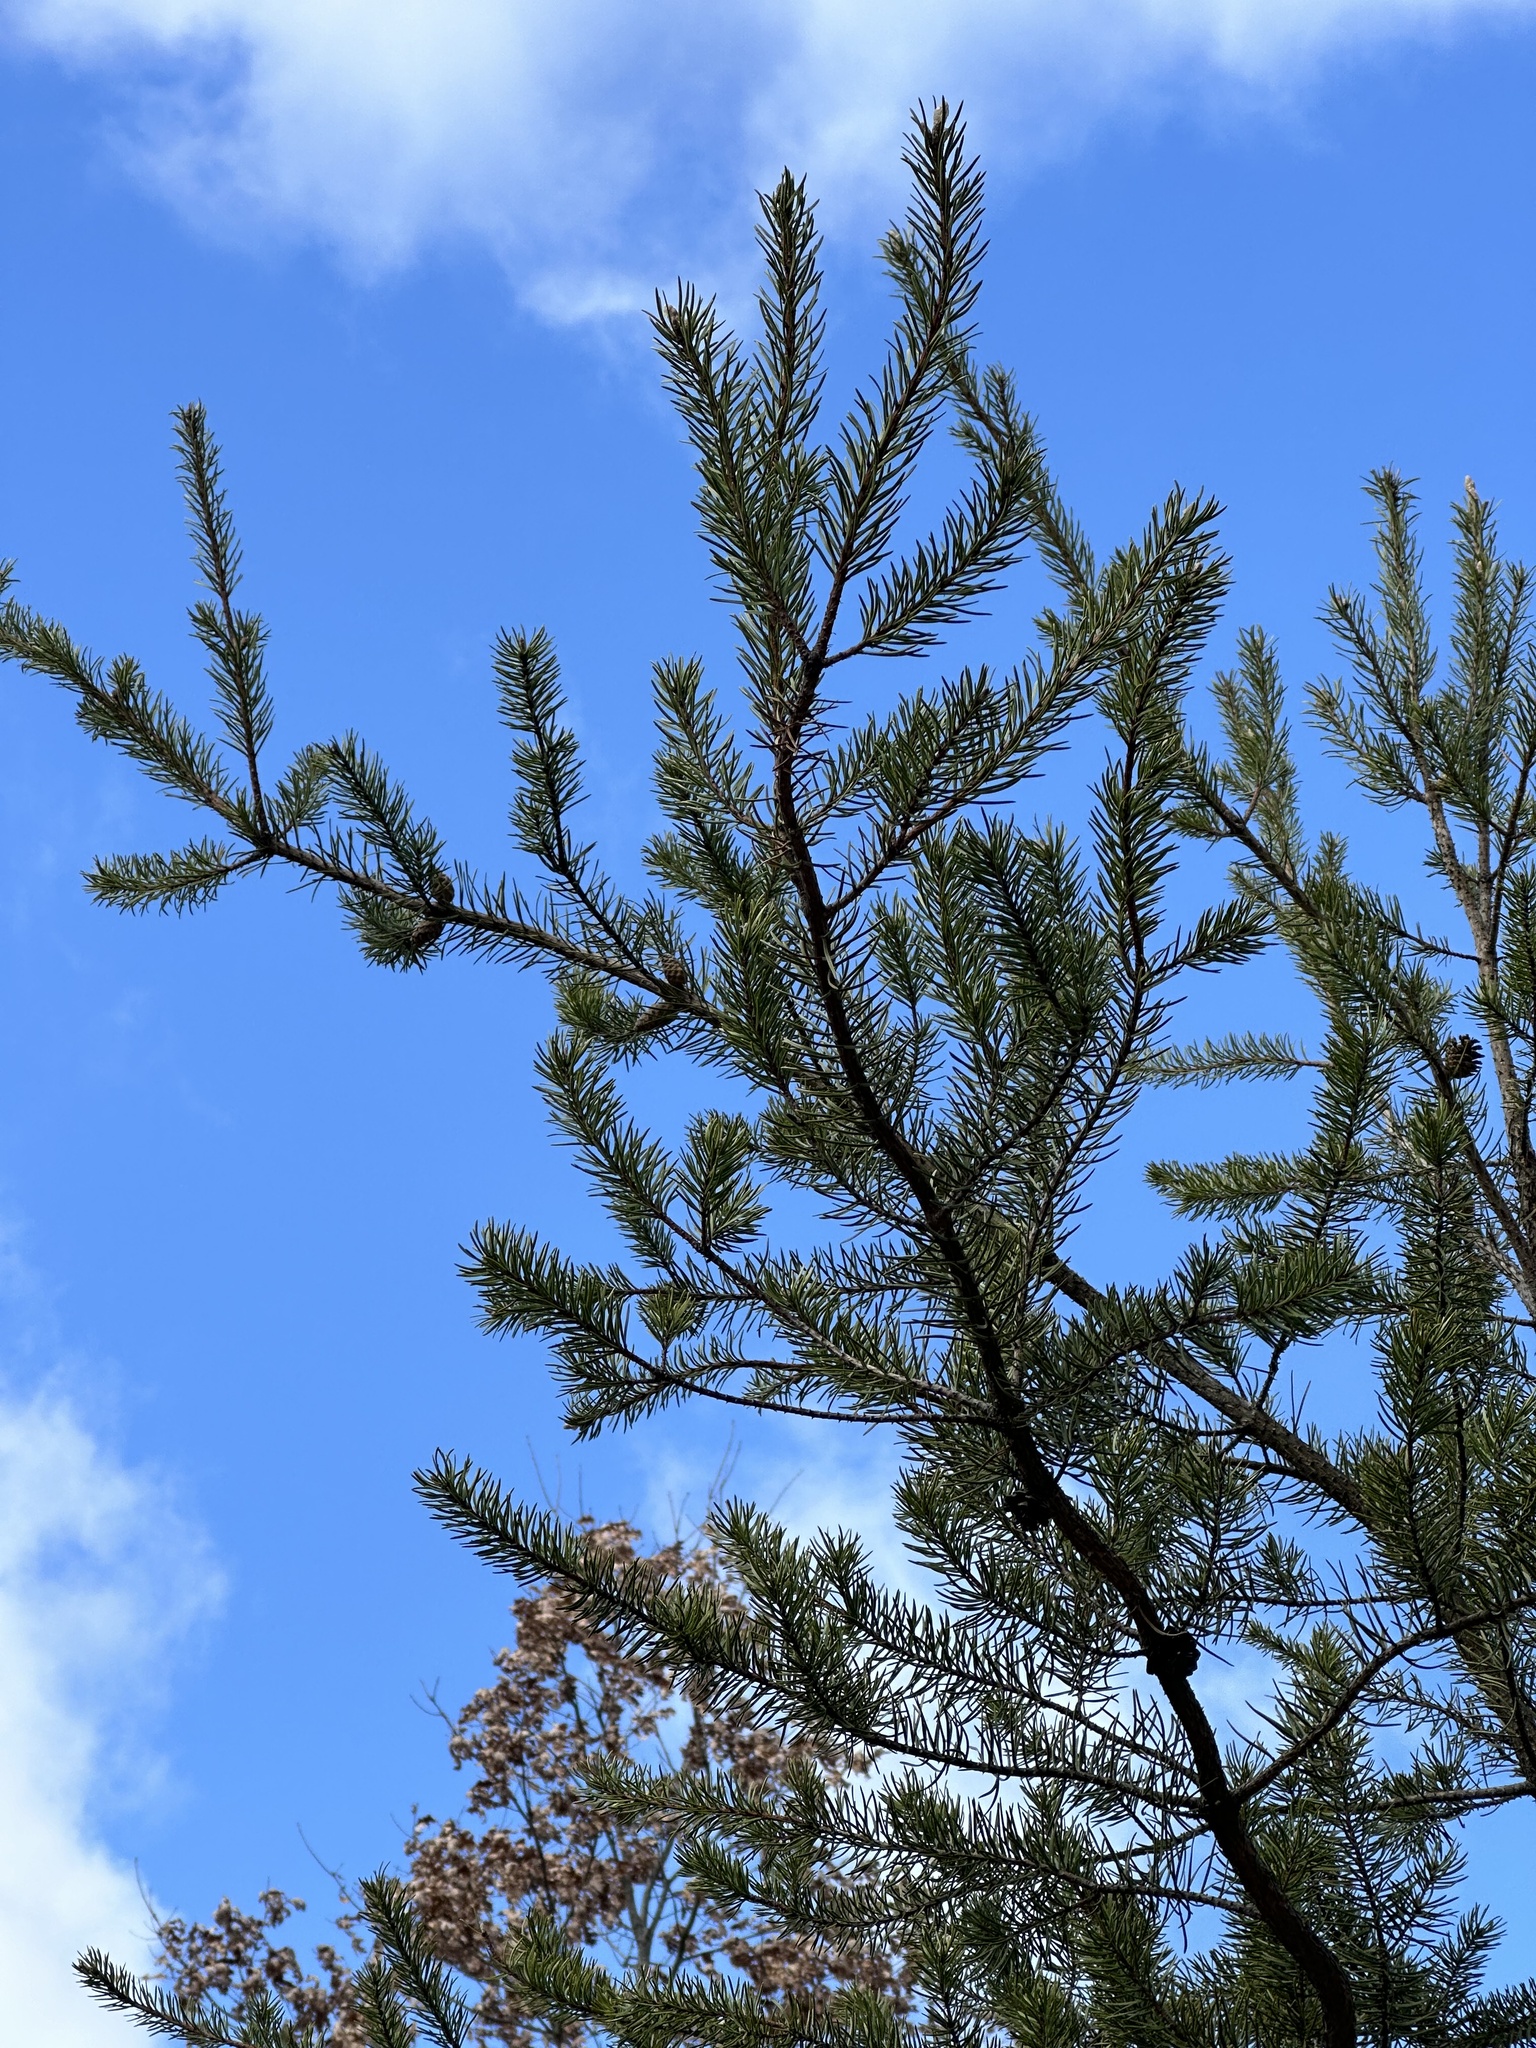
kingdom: Plantae
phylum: Tracheophyta
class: Pinopsida
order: Pinales
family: Pinaceae
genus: Pinus
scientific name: Pinus banksiana
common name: Jack pine
